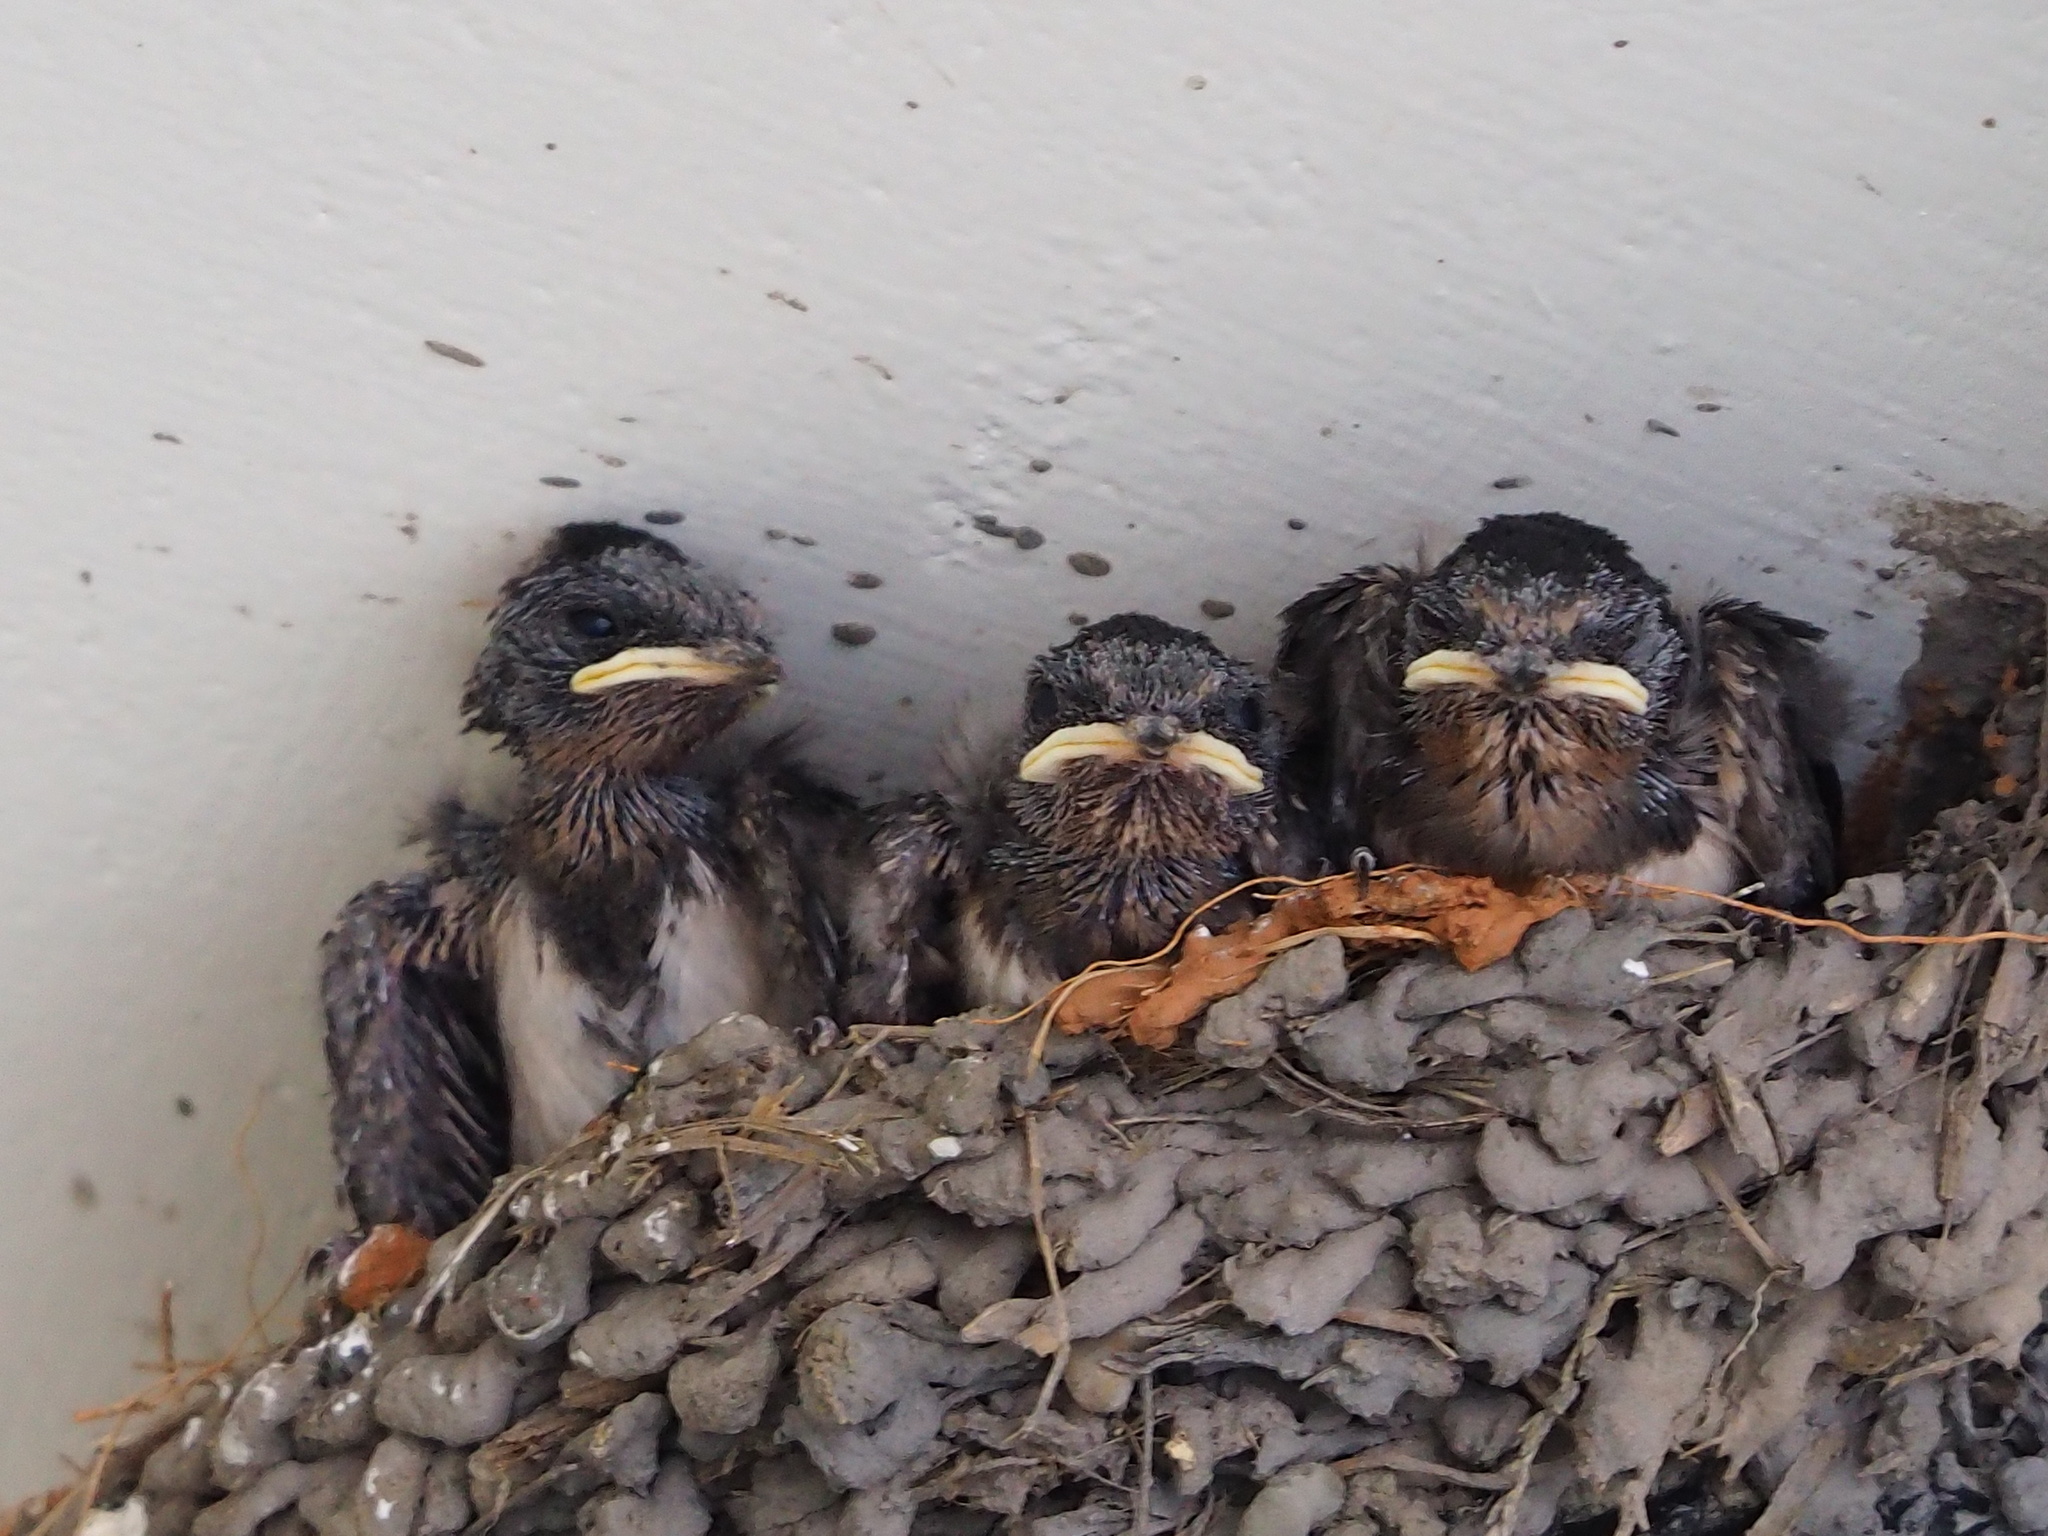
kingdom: Animalia
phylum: Chordata
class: Aves
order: Passeriformes
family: Hirundinidae
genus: Hirundo
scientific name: Hirundo rustica
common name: Barn swallow
